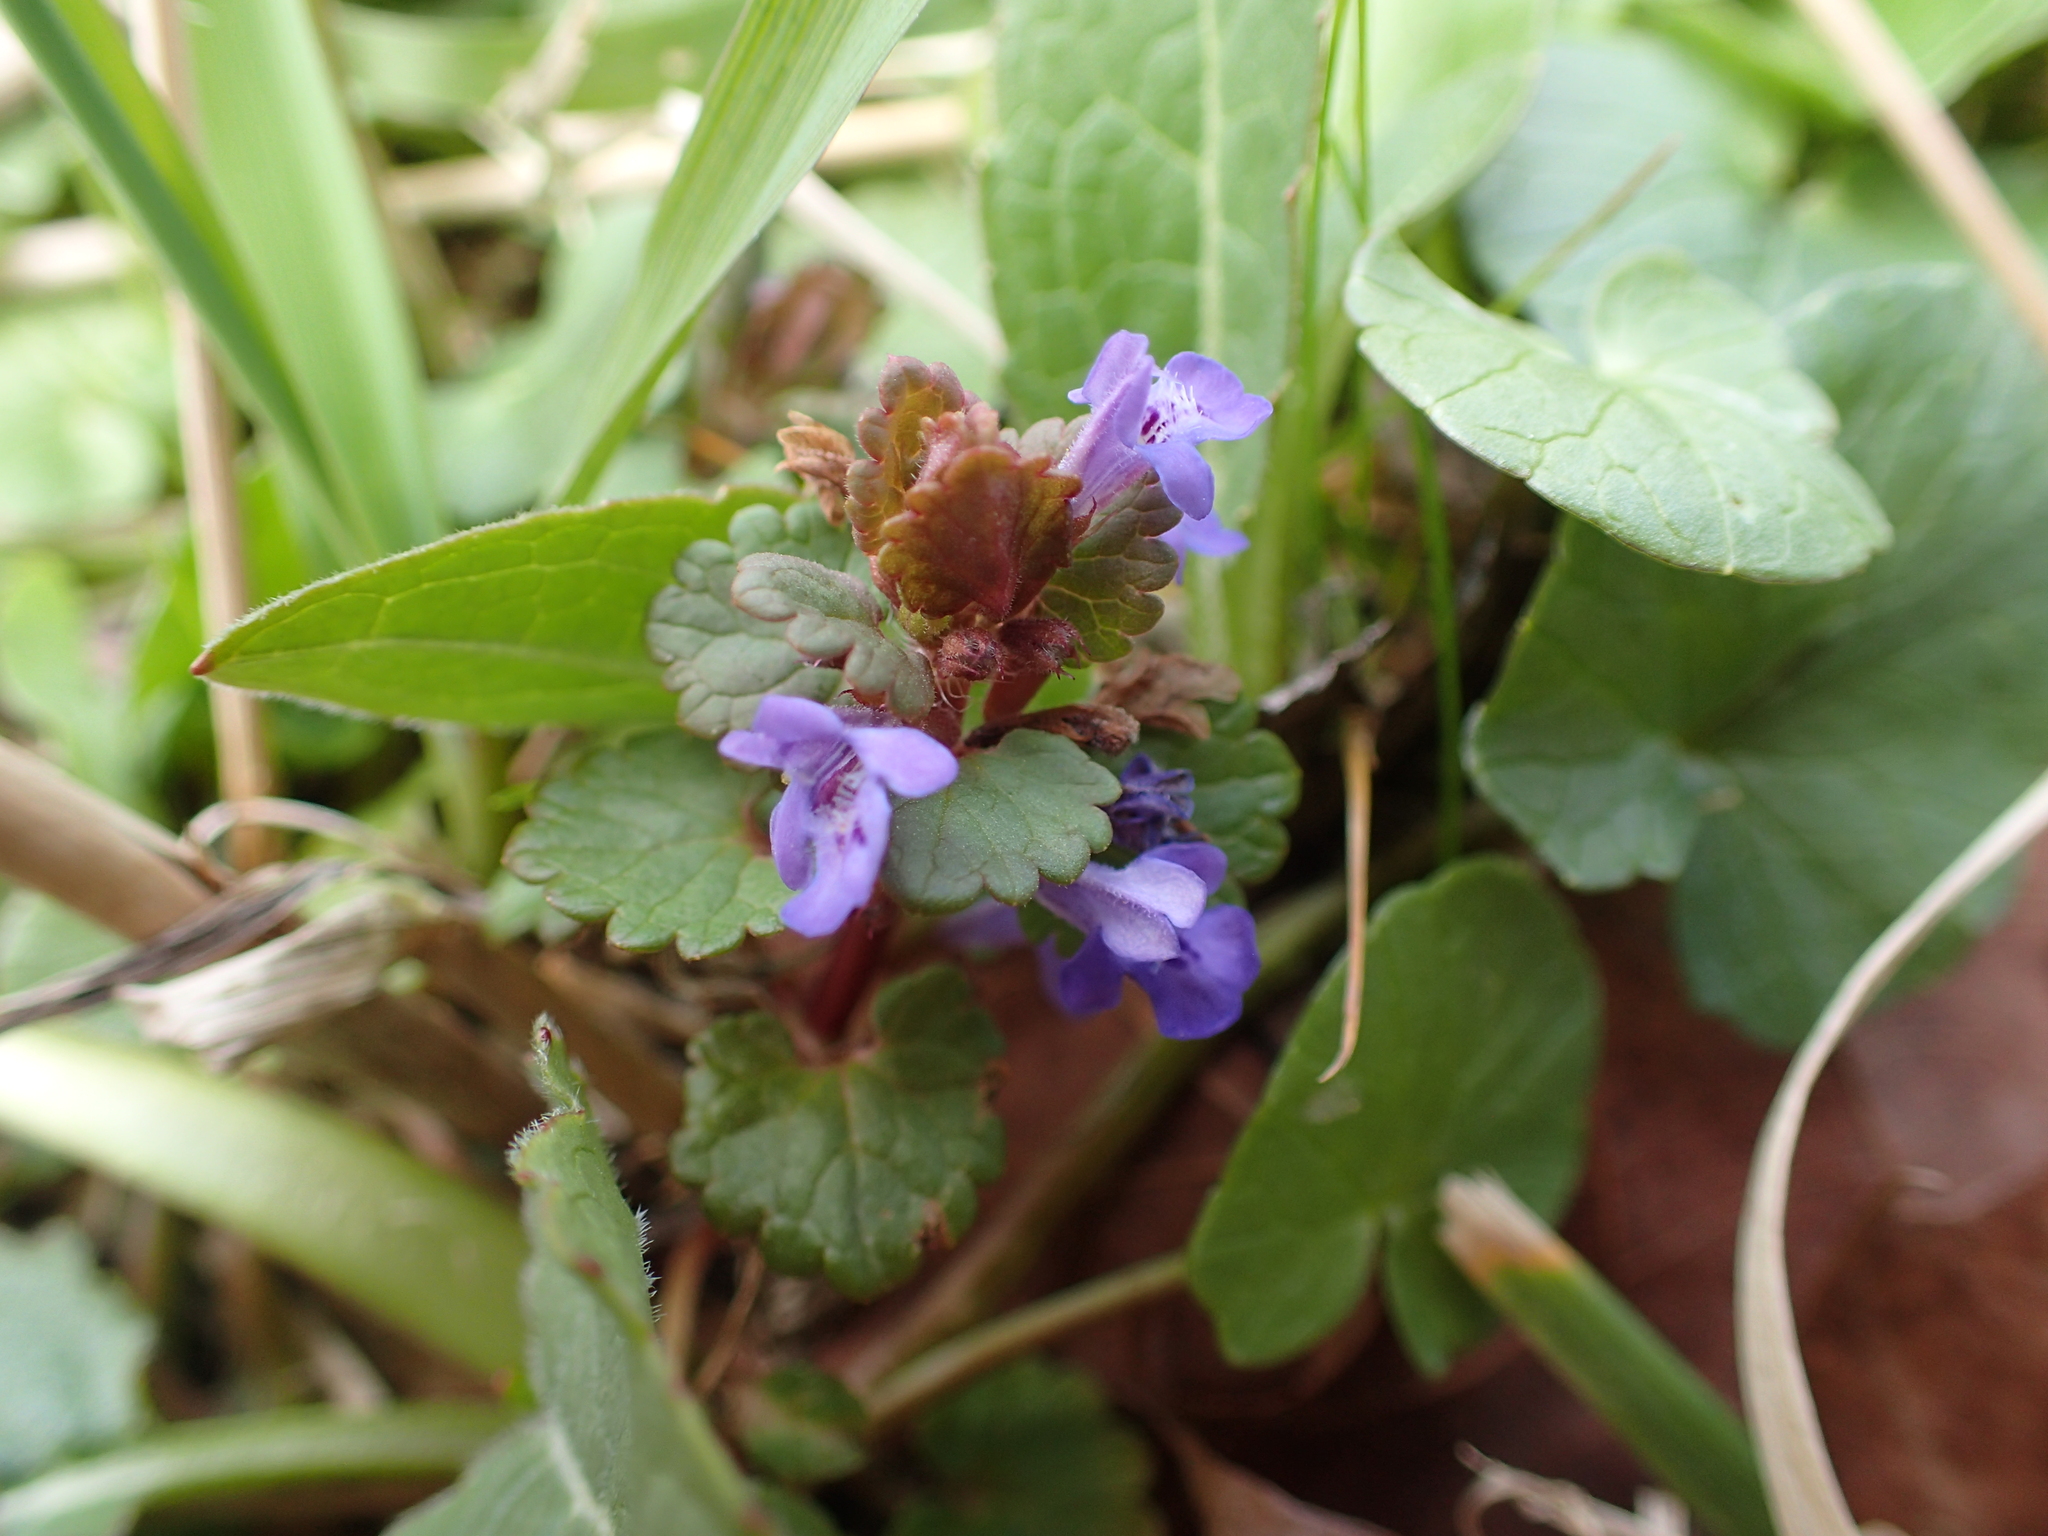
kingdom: Plantae
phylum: Tracheophyta
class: Magnoliopsida
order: Lamiales
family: Lamiaceae
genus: Glechoma
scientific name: Glechoma hederacea
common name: Ground ivy
